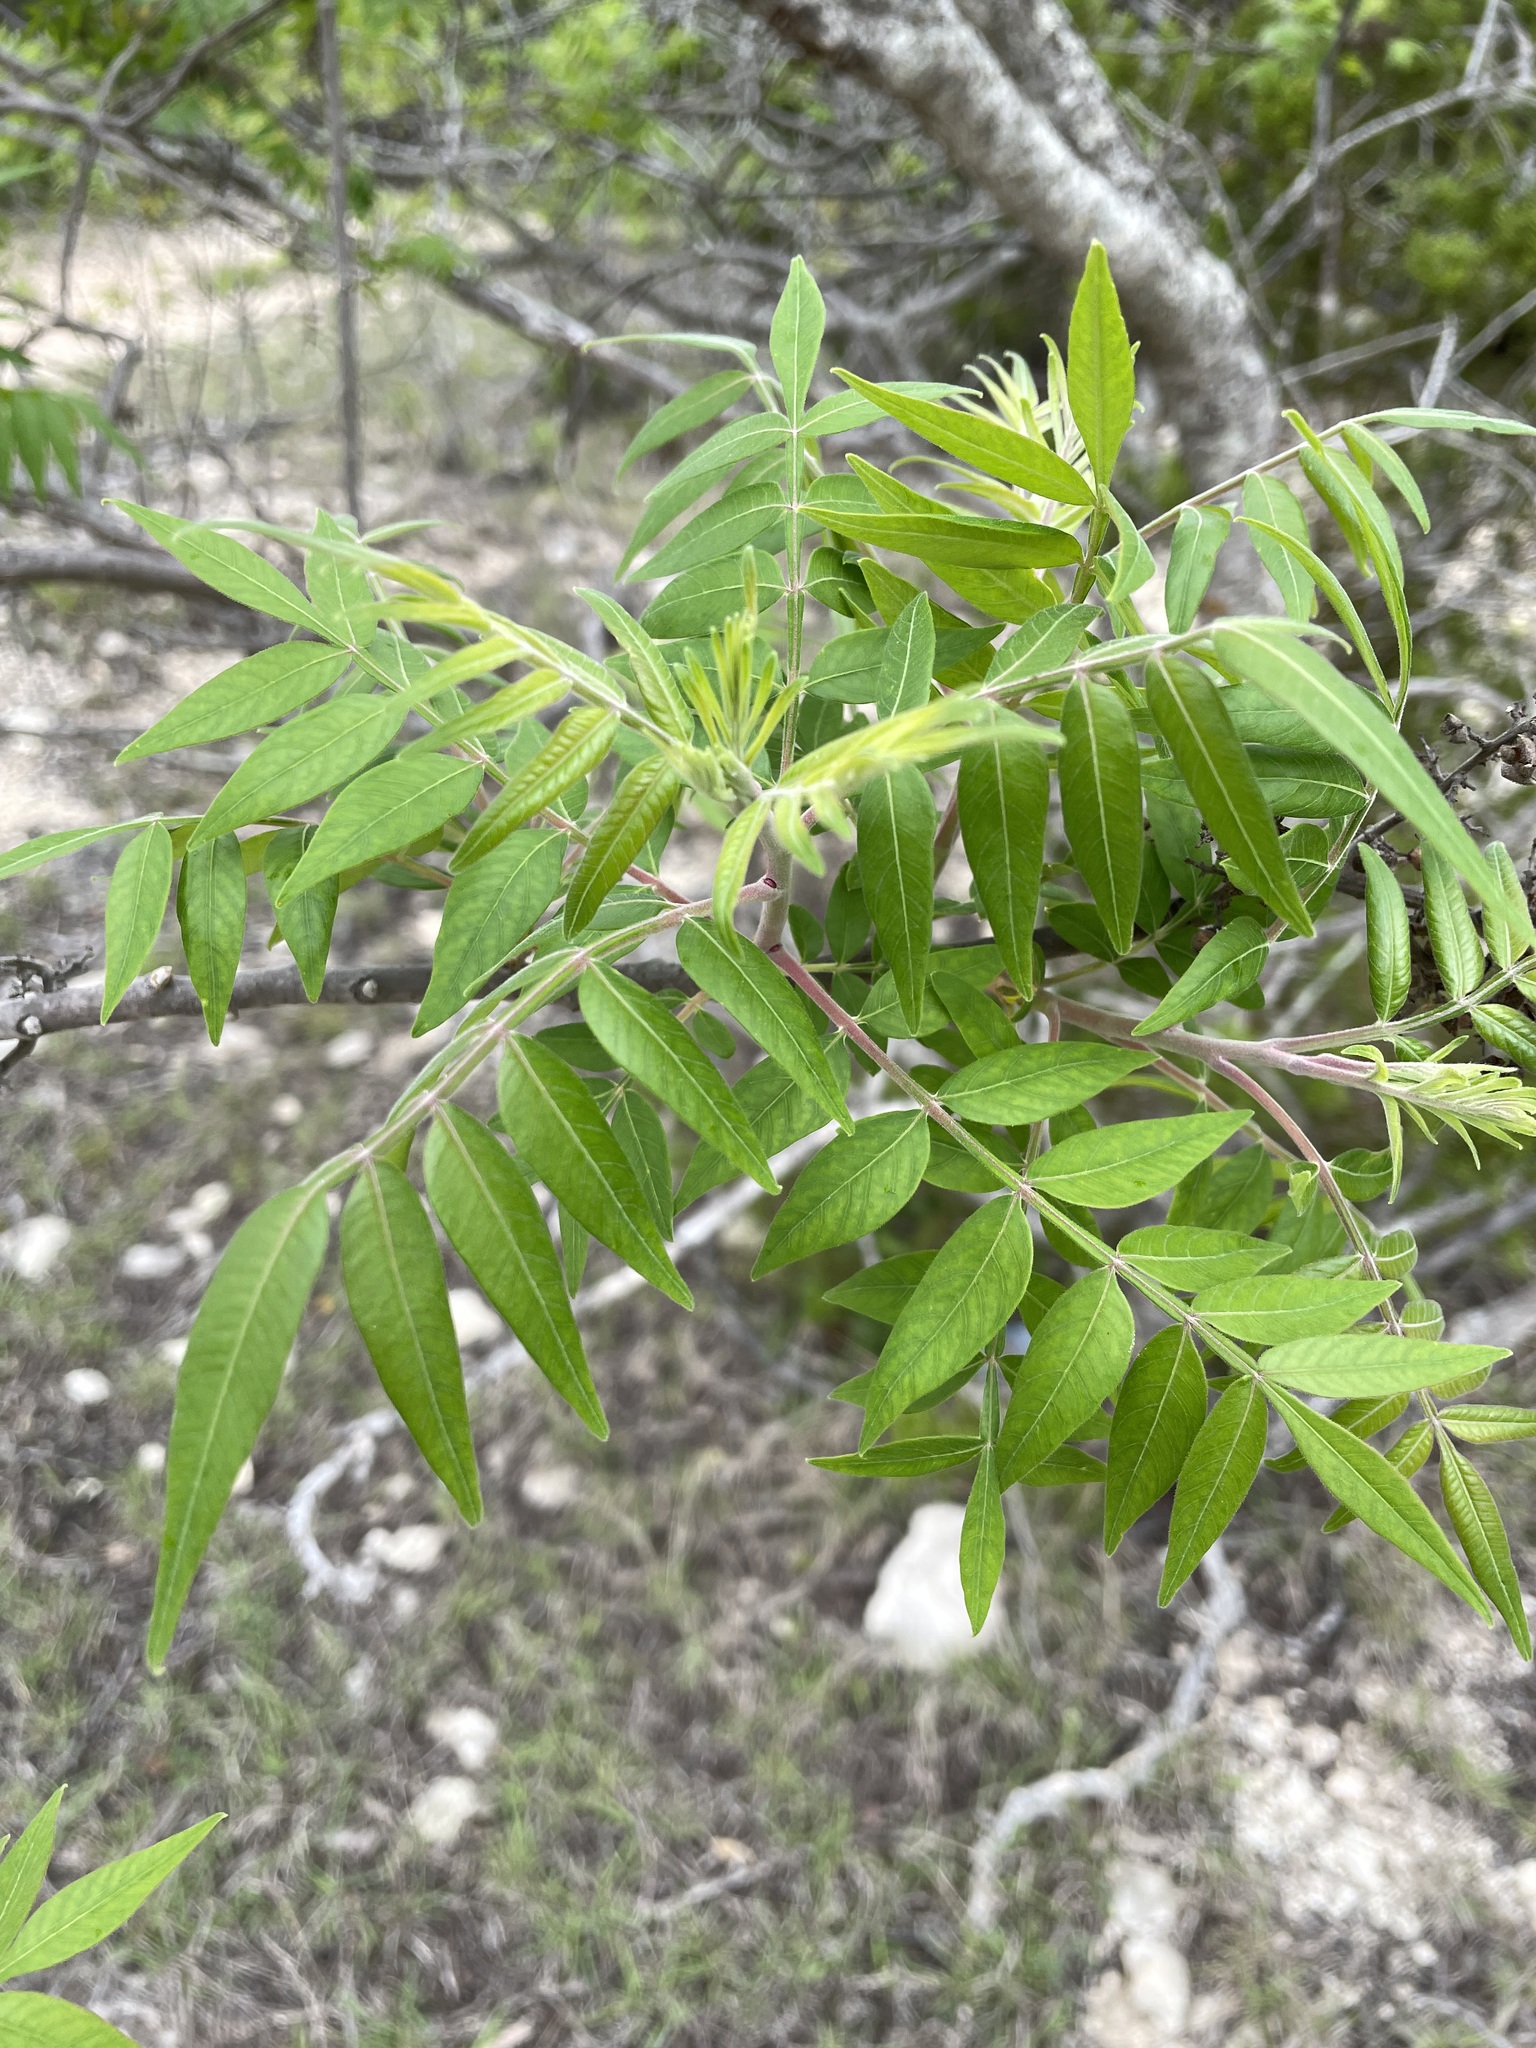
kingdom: Plantae
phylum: Tracheophyta
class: Magnoliopsida
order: Sapindales
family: Anacardiaceae
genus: Rhus
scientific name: Rhus lanceolata
